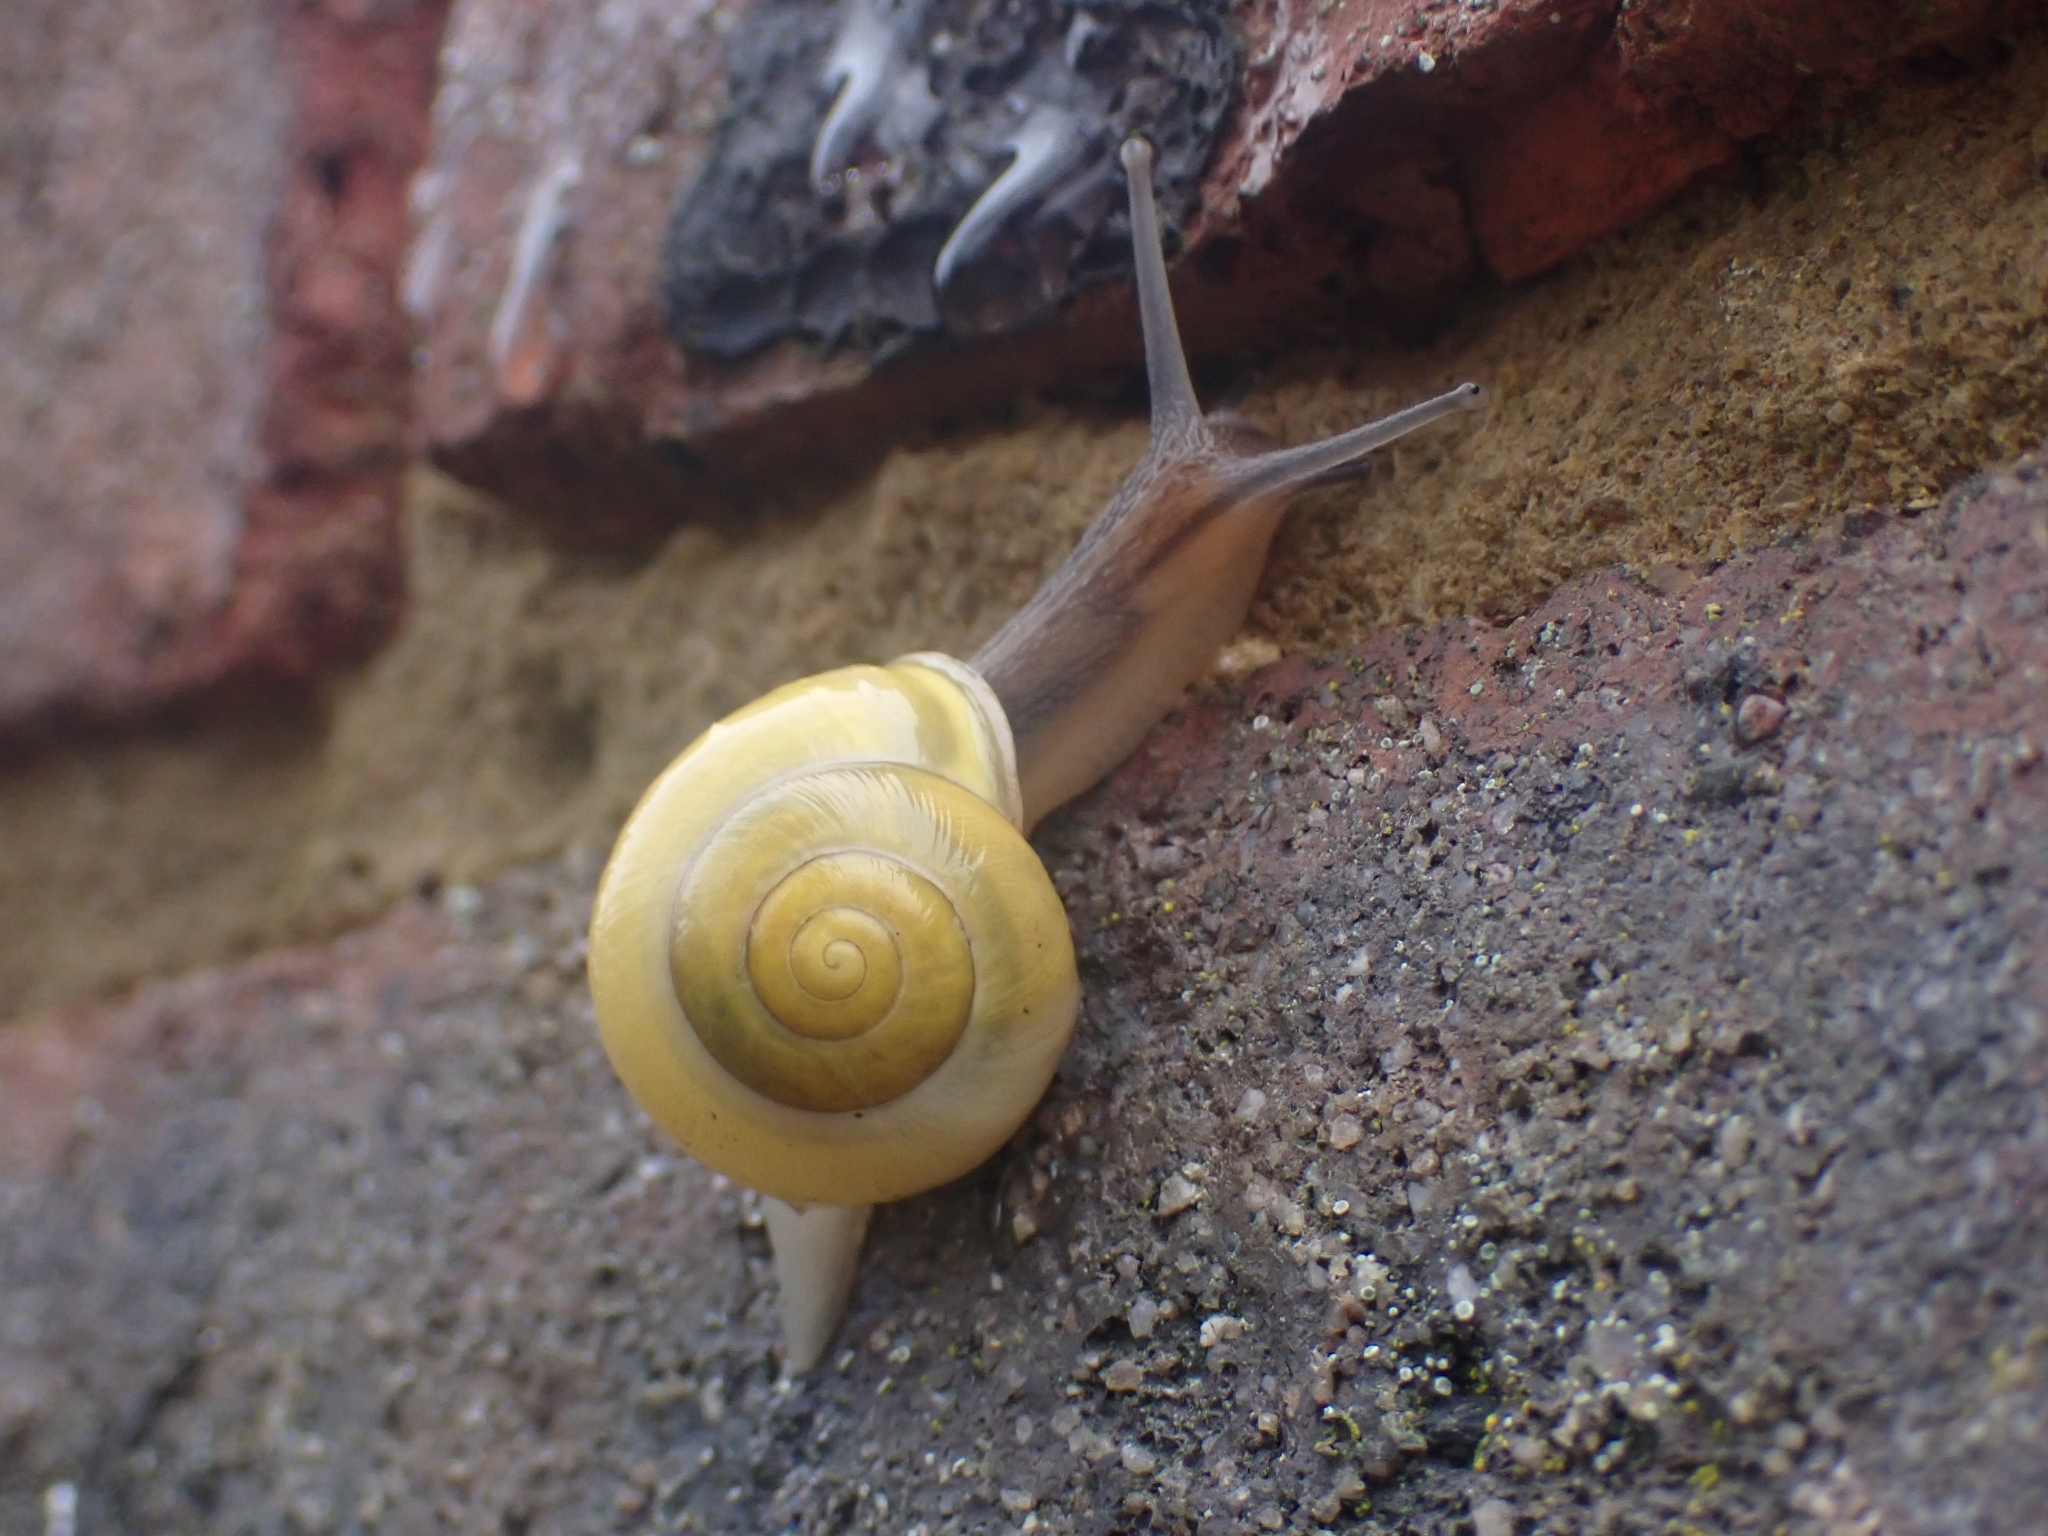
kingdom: Animalia
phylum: Mollusca
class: Gastropoda
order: Stylommatophora
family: Helicidae
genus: Cepaea
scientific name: Cepaea hortensis
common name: White-lip gardensnail
